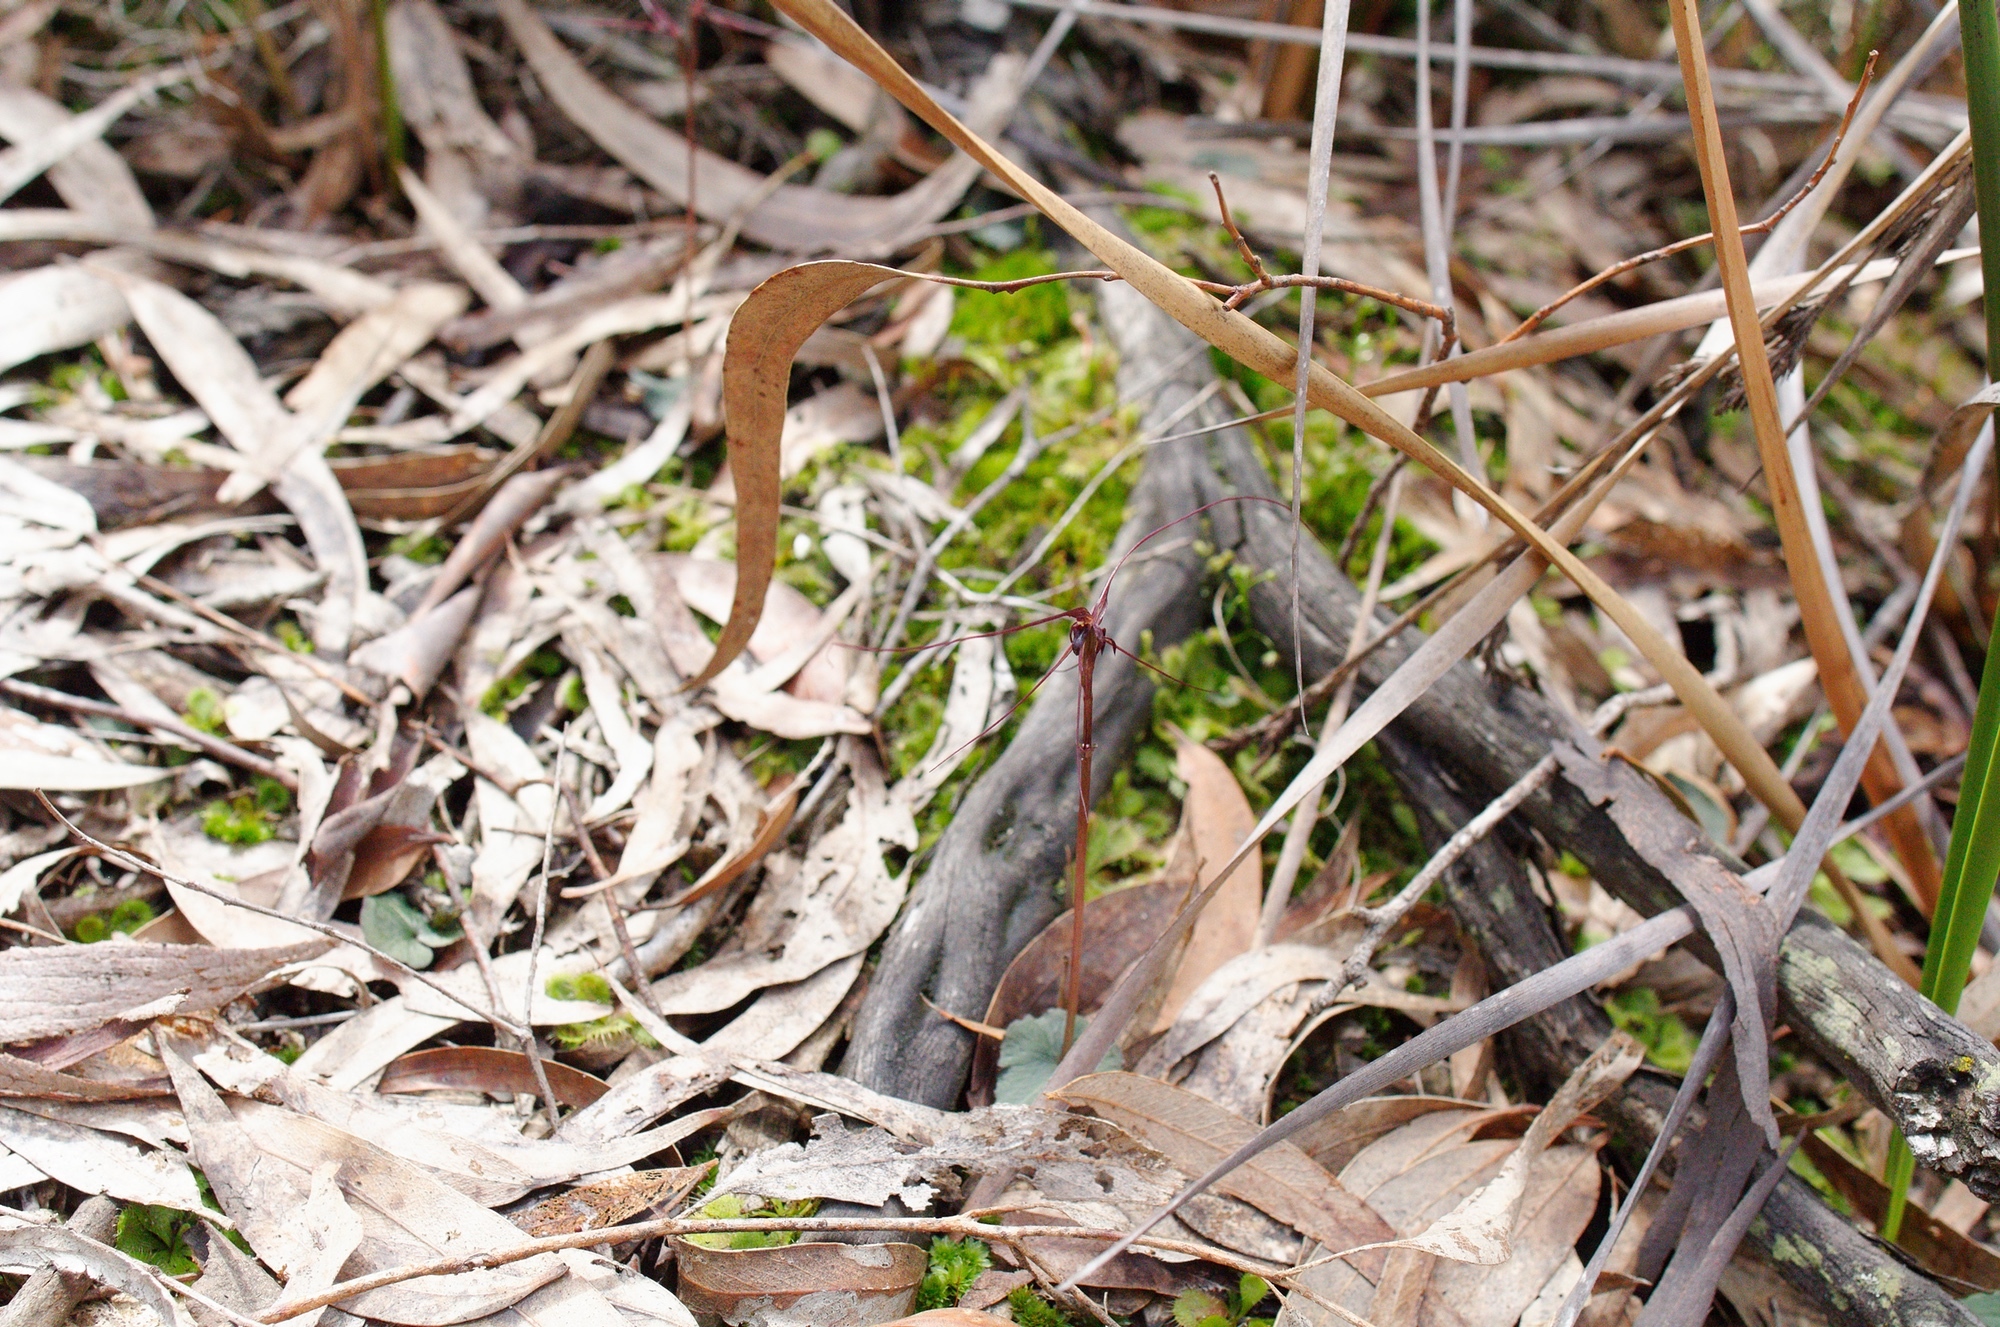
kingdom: Plantae
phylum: Tracheophyta
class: Liliopsida
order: Asparagales
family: Orchidaceae
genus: Acianthus
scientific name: Acianthus caudatus
